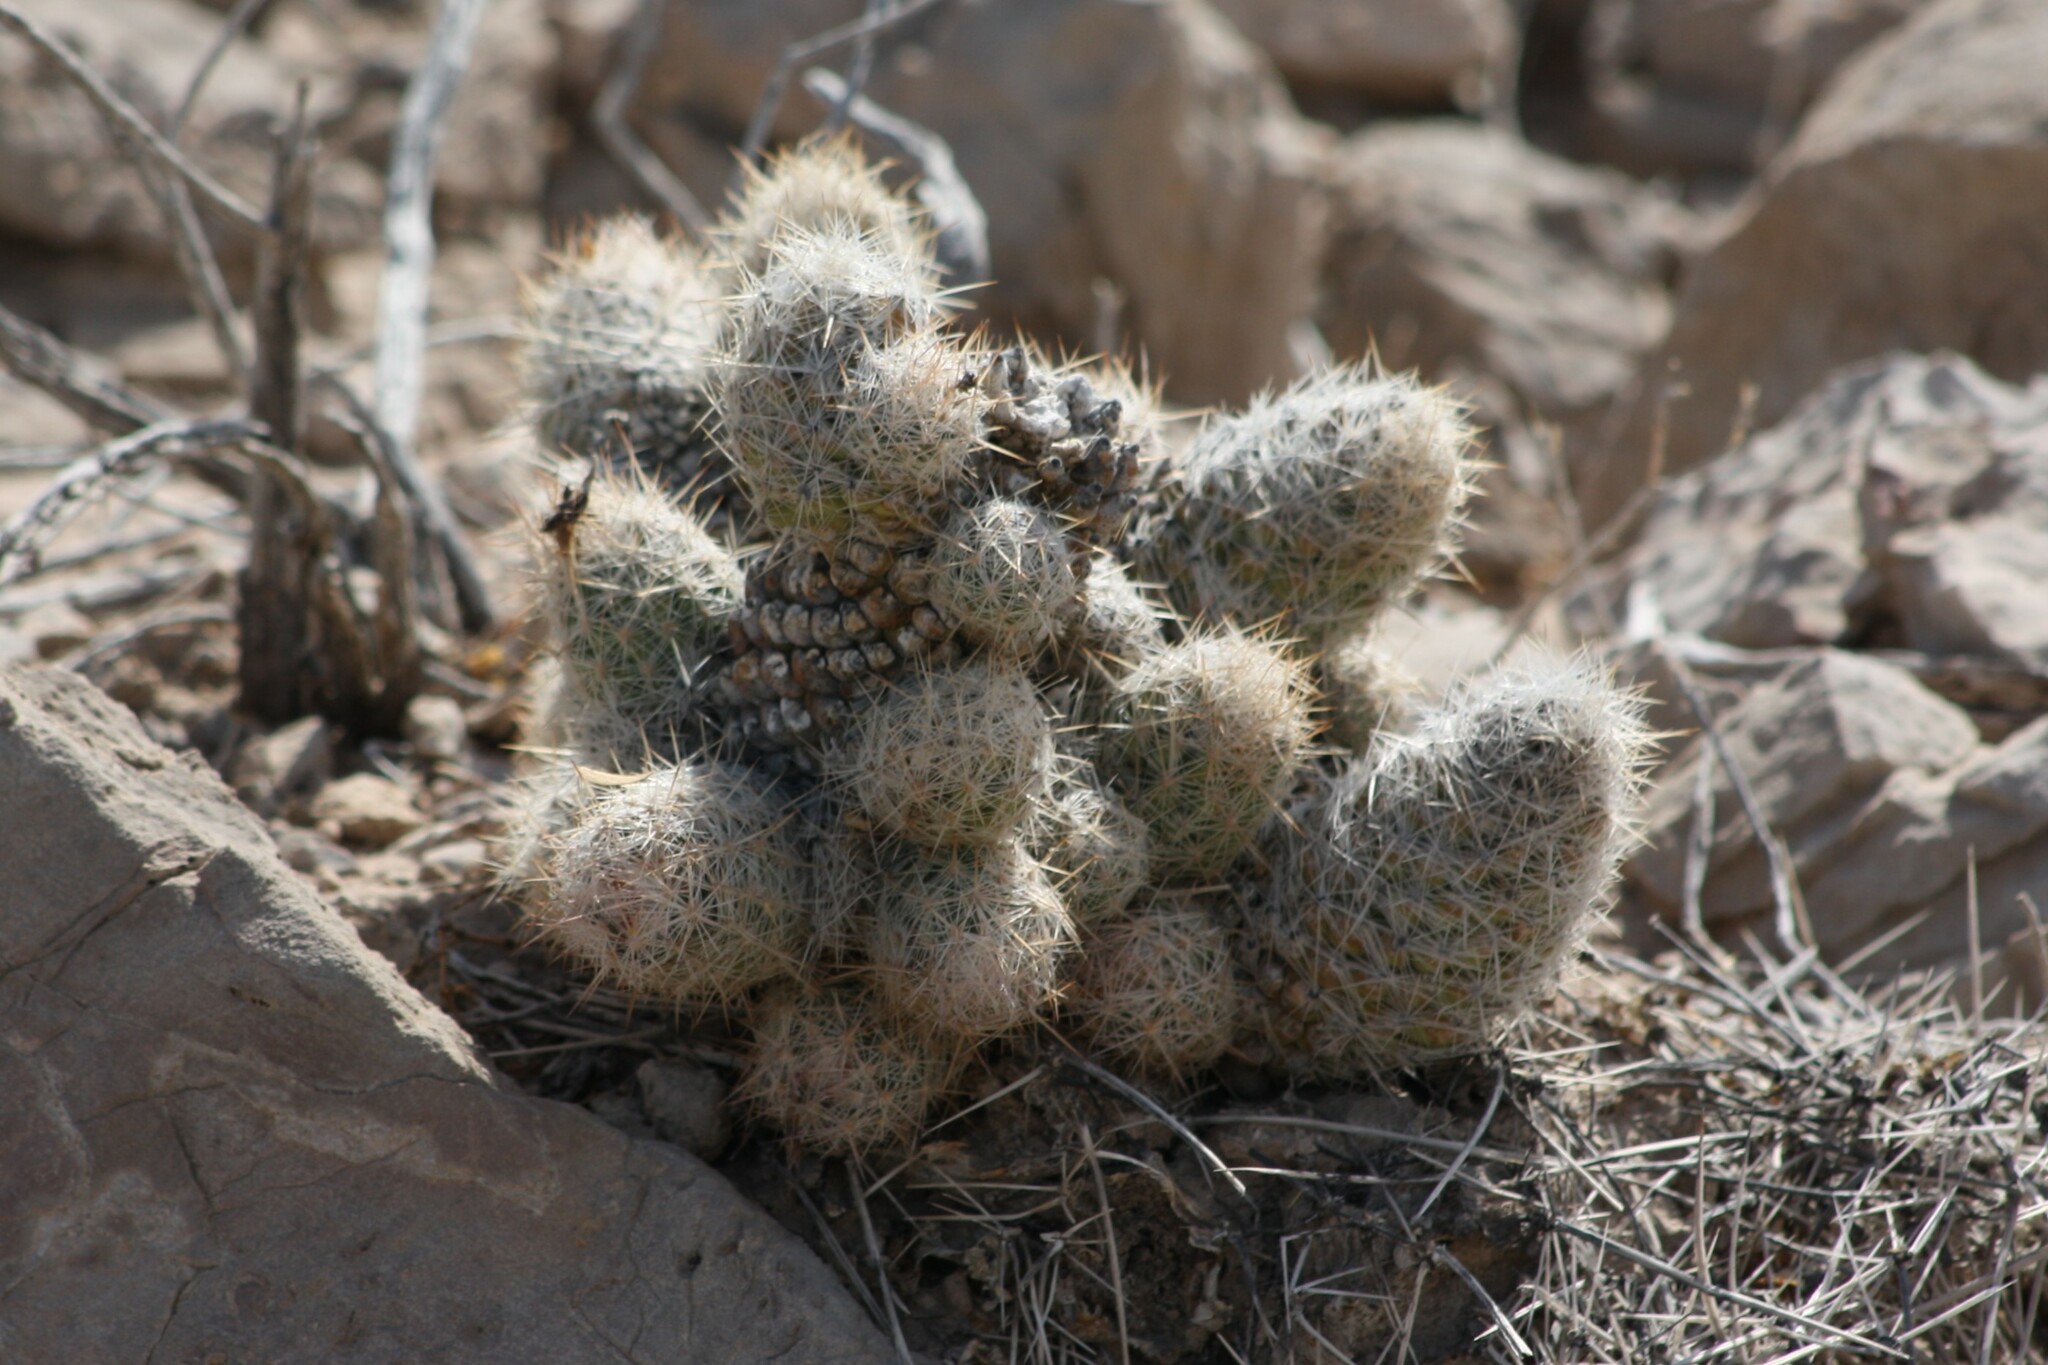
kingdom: Plantae
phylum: Tracheophyta
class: Magnoliopsida
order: Caryophyllales
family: Cactaceae
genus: Pelecyphora
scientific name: Pelecyphora tuberculosa
